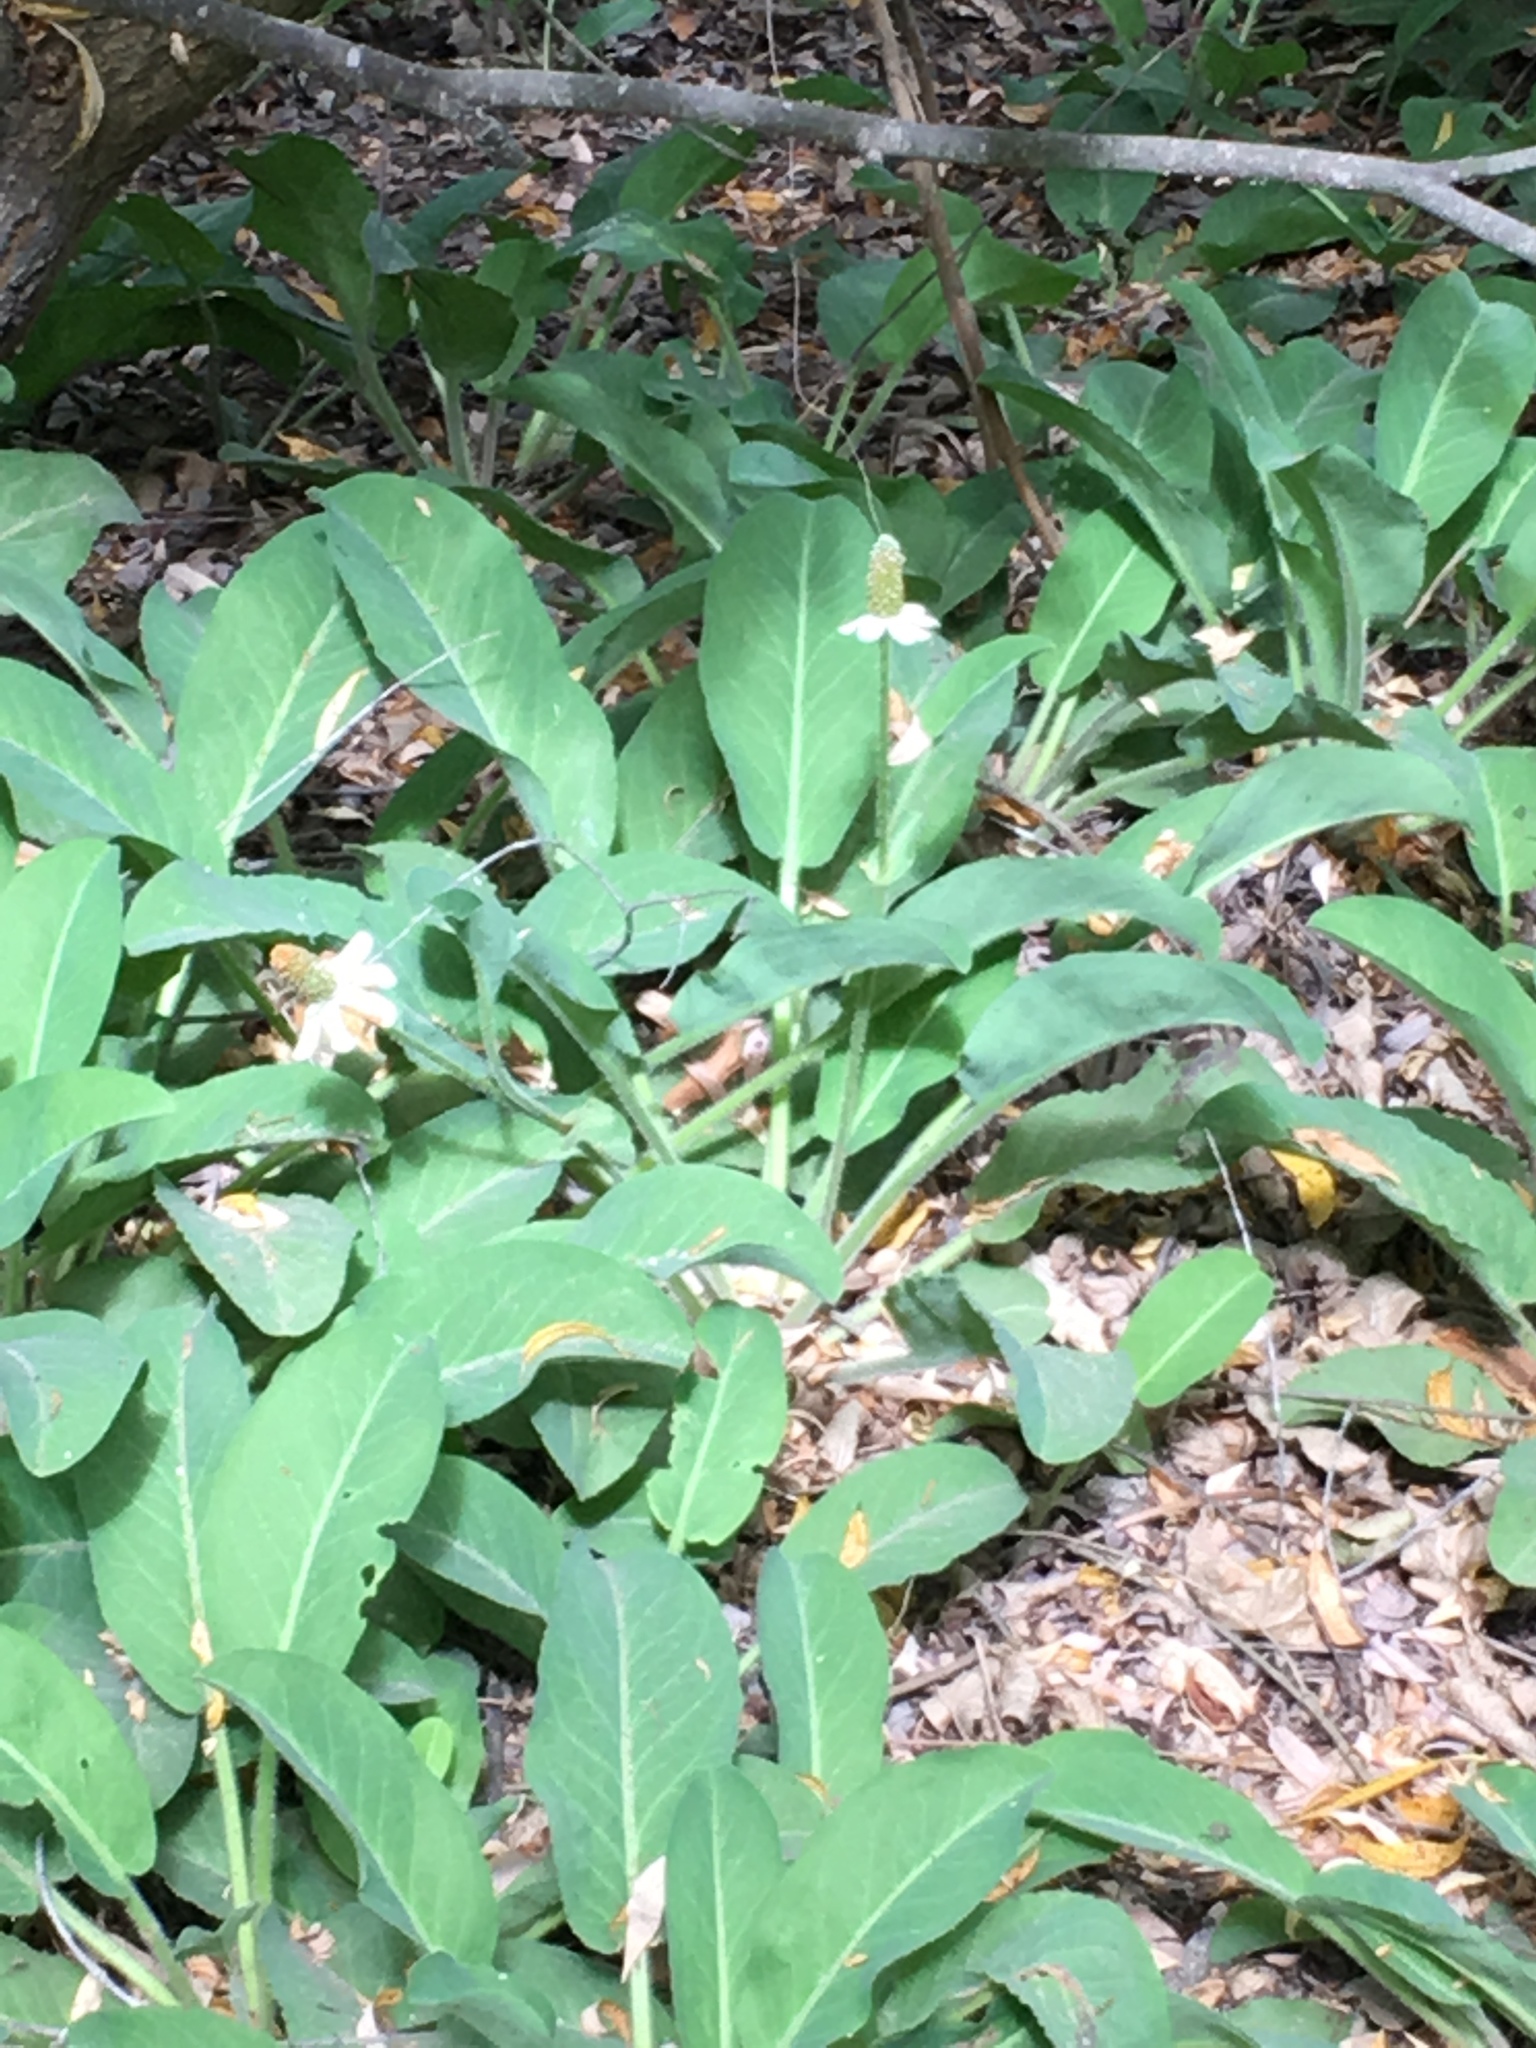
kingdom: Plantae
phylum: Tracheophyta
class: Magnoliopsida
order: Piperales
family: Saururaceae
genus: Anemopsis
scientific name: Anemopsis californica
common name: Apache-beads
